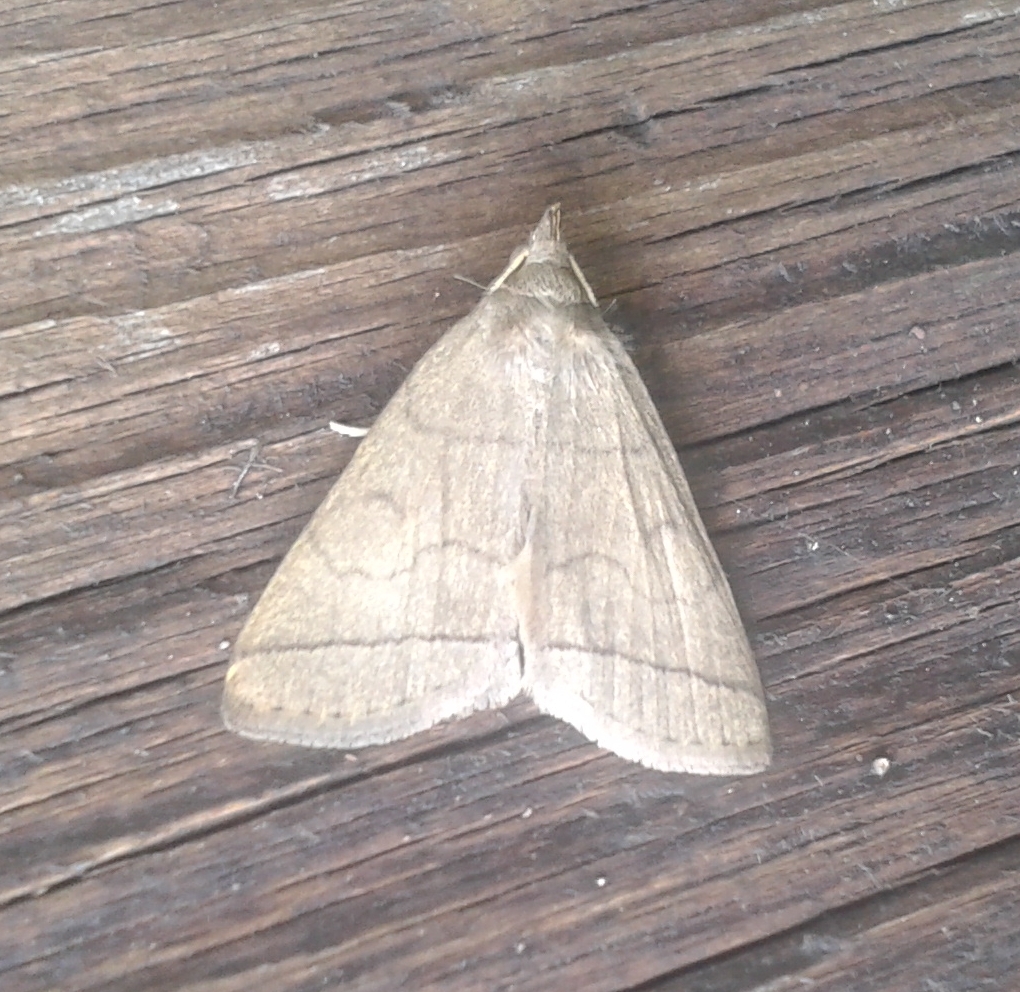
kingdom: Animalia
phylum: Arthropoda
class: Insecta
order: Lepidoptera
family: Erebidae
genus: Herminia
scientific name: Herminia tarsipennalis
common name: Fan-foot
